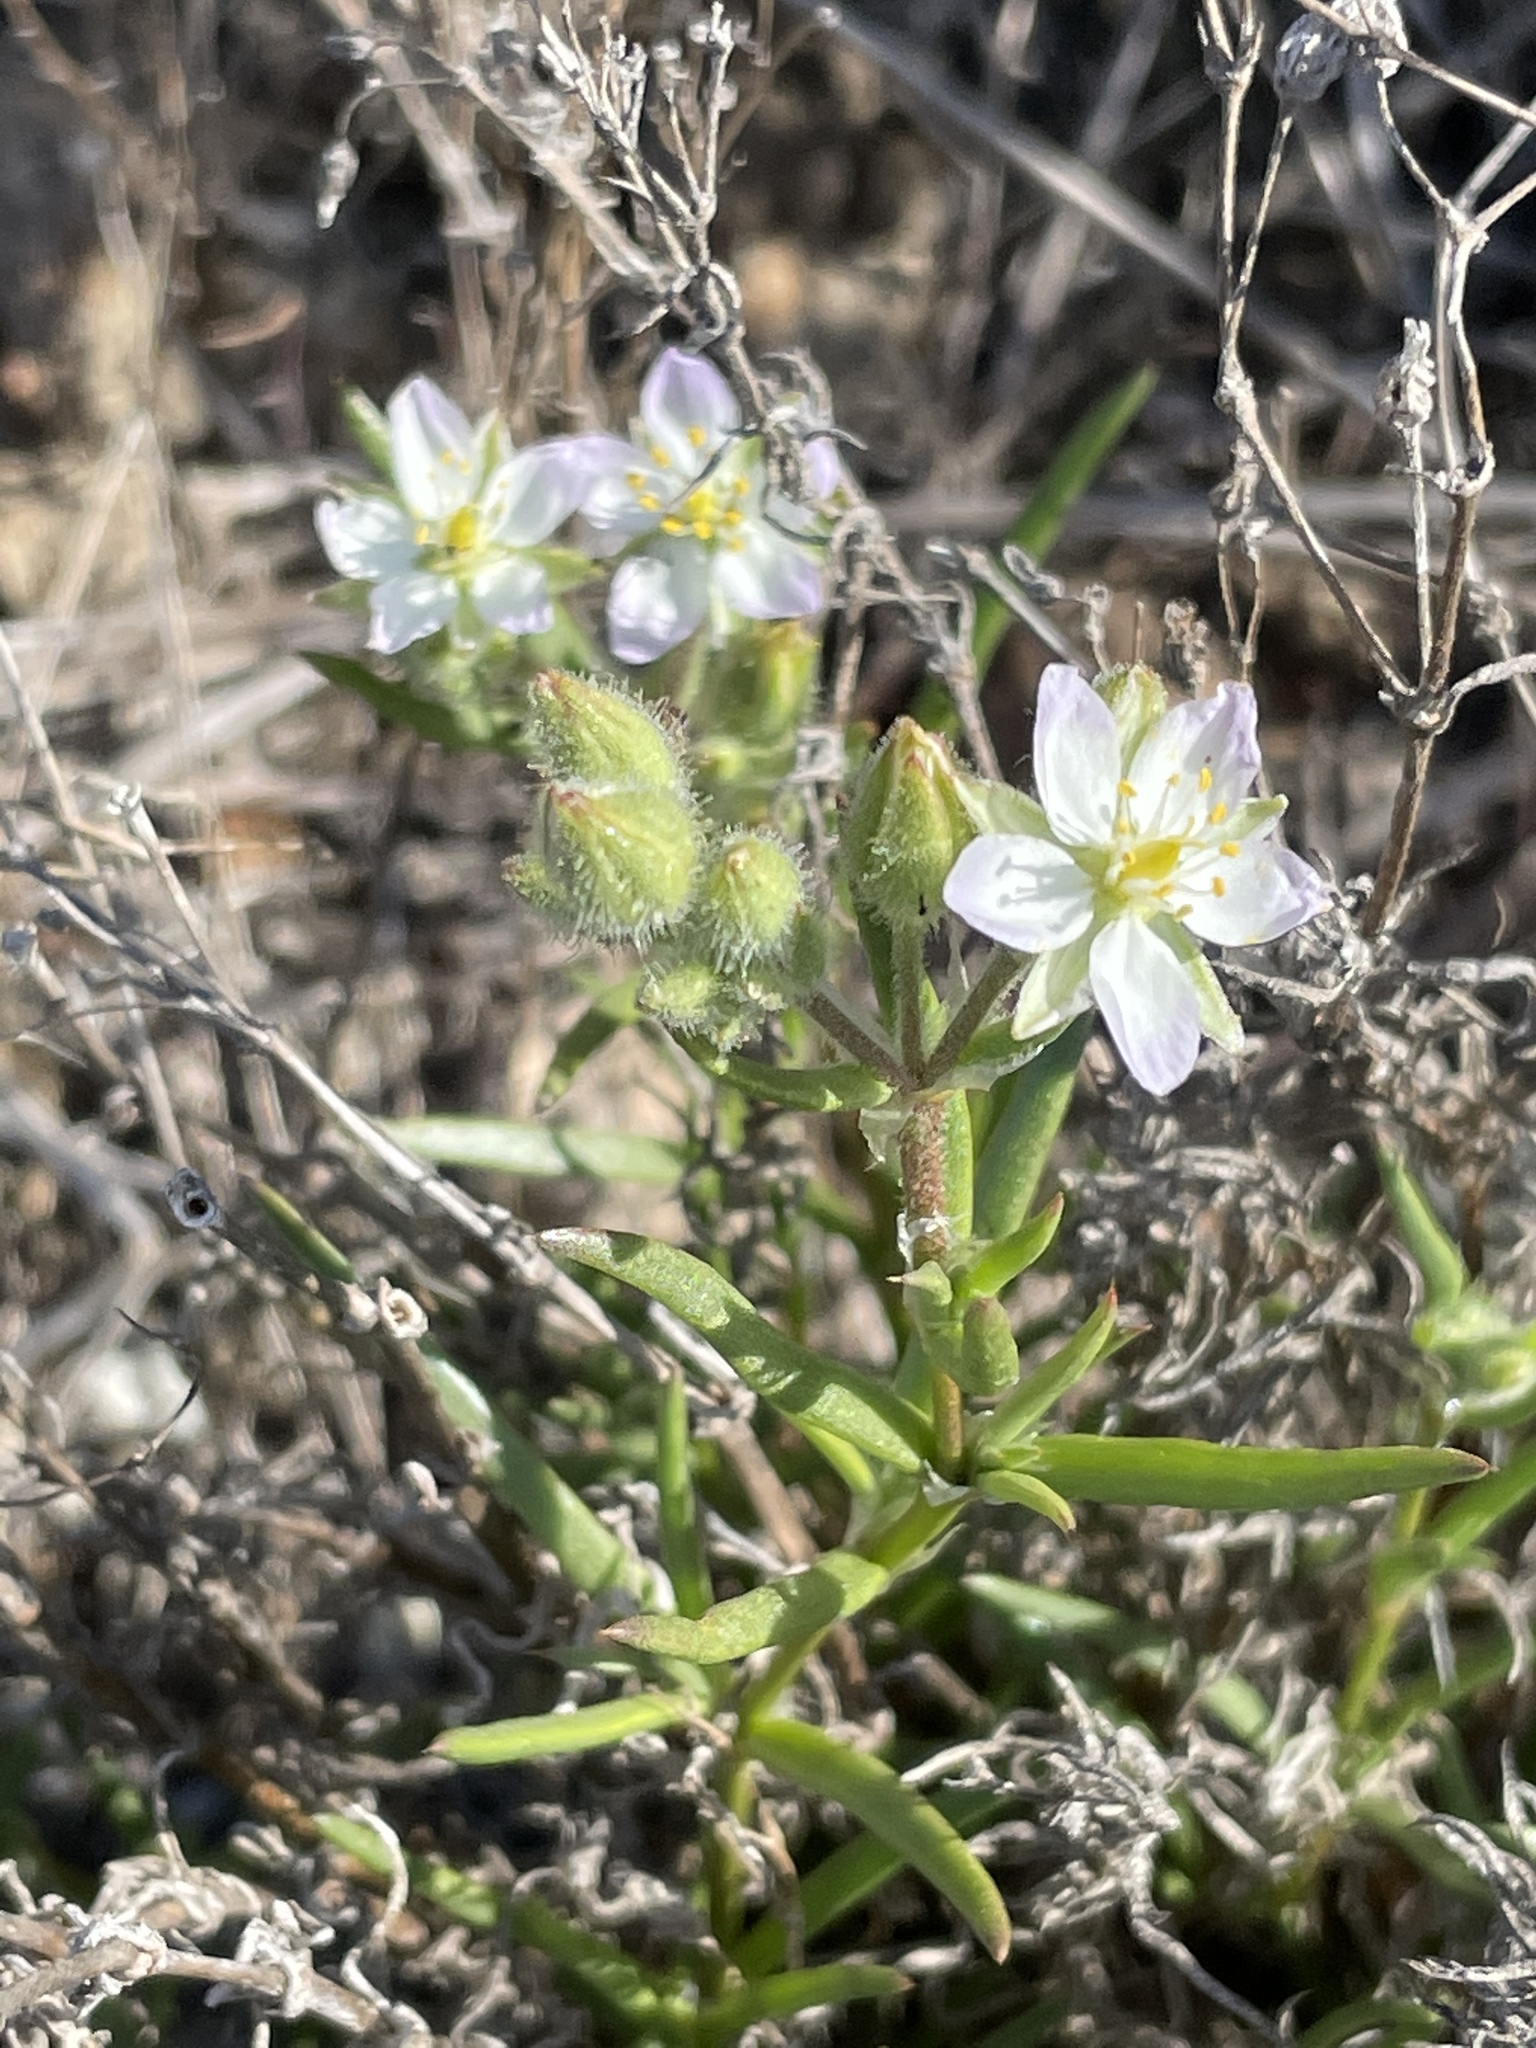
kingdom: Plantae
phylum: Tracheophyta
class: Magnoliopsida
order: Caryophyllales
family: Caryophyllaceae
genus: Spergularia
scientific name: Spergularia macrotheca
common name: Beach sand-spurrey
